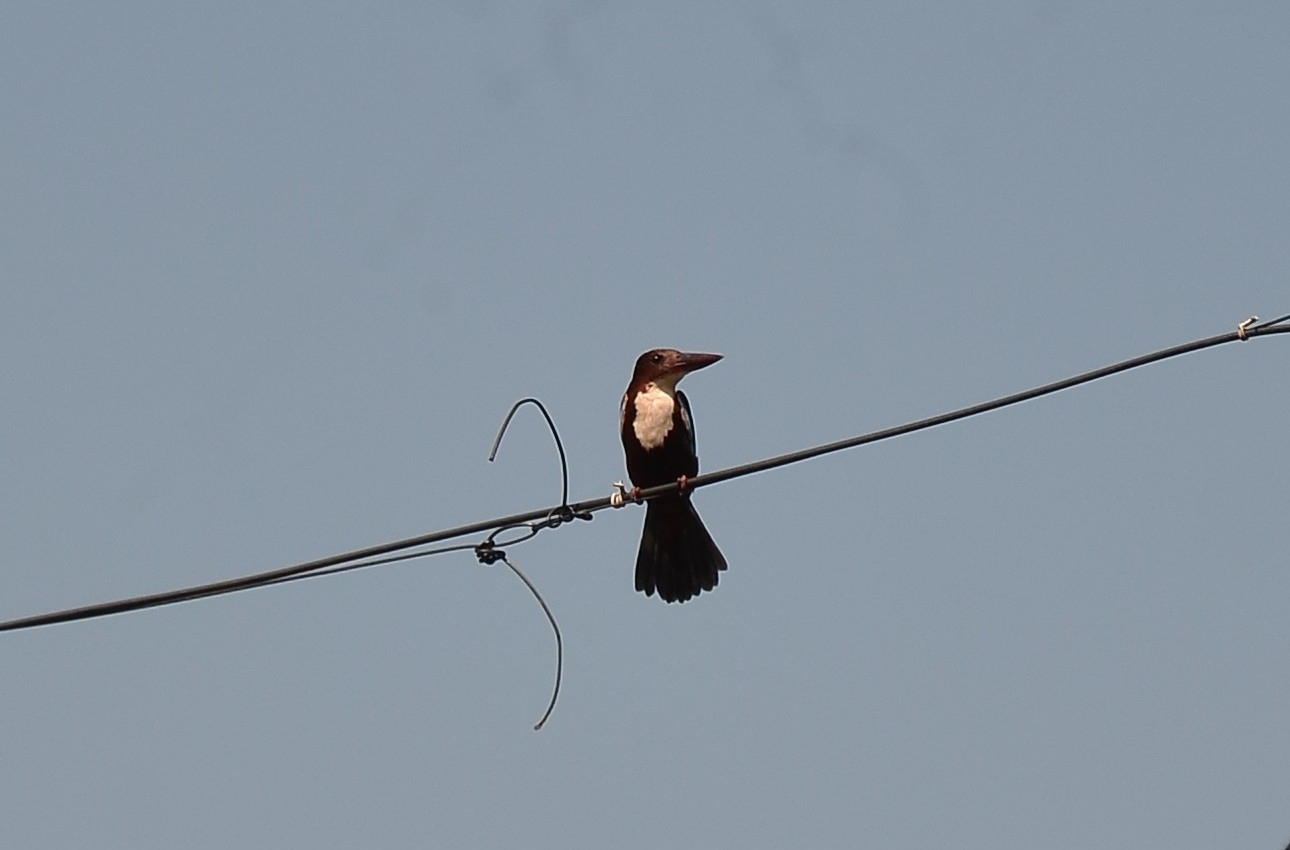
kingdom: Animalia
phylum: Chordata
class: Aves
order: Coraciiformes
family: Alcedinidae
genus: Halcyon
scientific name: Halcyon smyrnensis
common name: White-throated kingfisher
